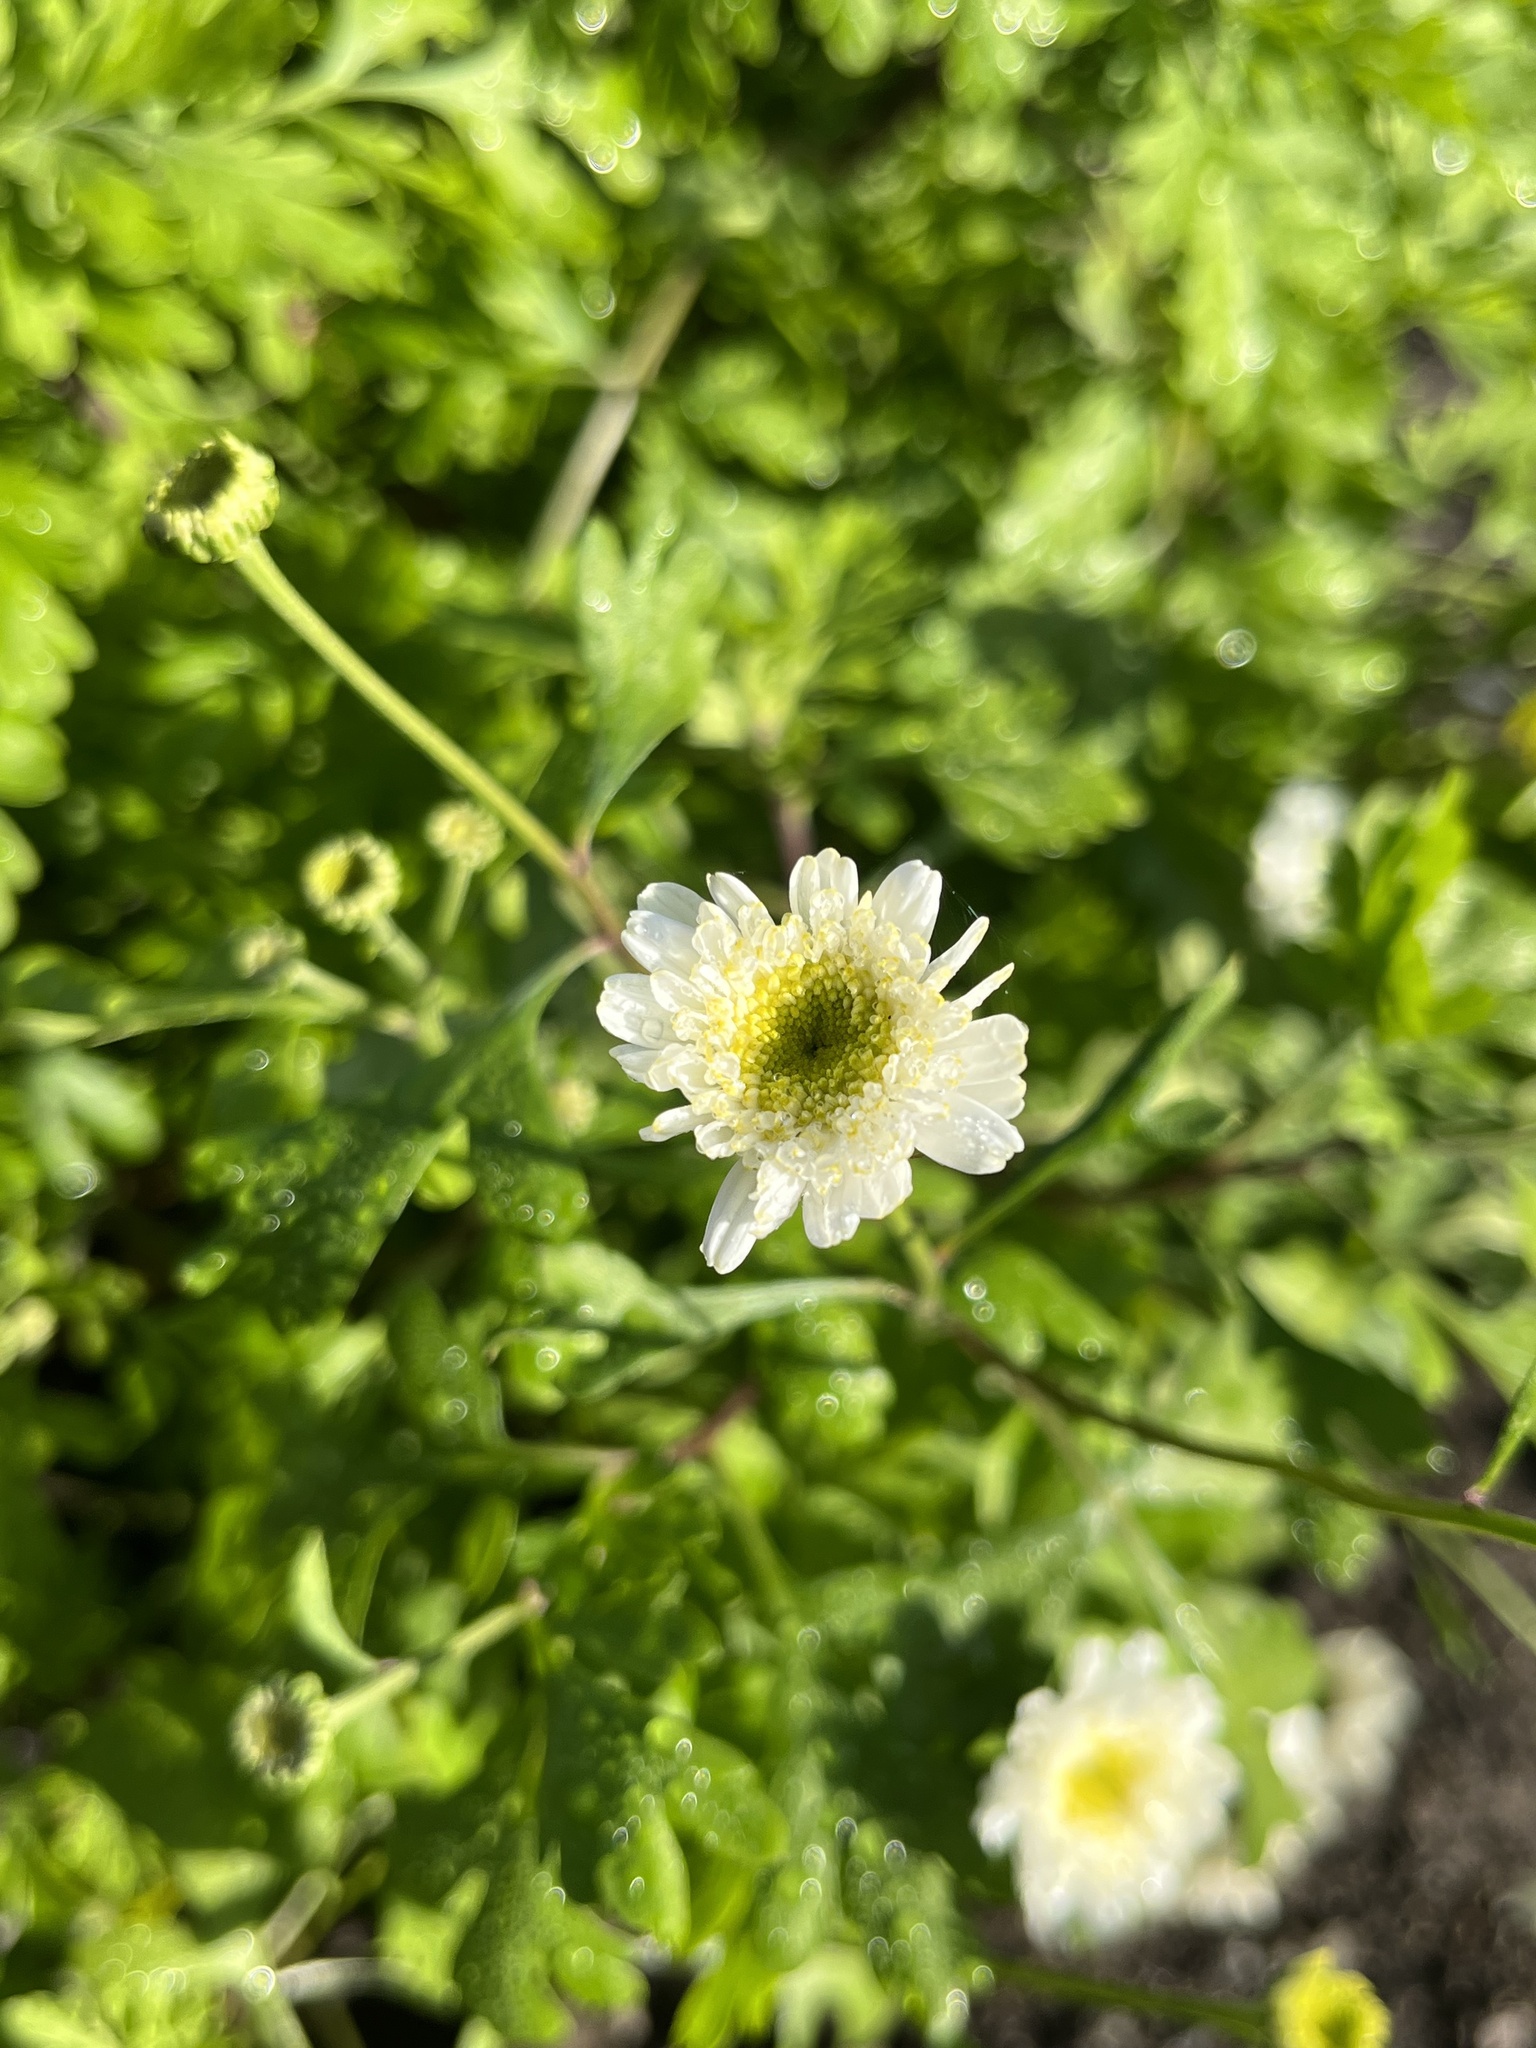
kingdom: Plantae
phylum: Tracheophyta
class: Magnoliopsida
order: Asterales
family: Asteraceae
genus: Tanacetum
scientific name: Tanacetum parthenium
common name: Feverfew
